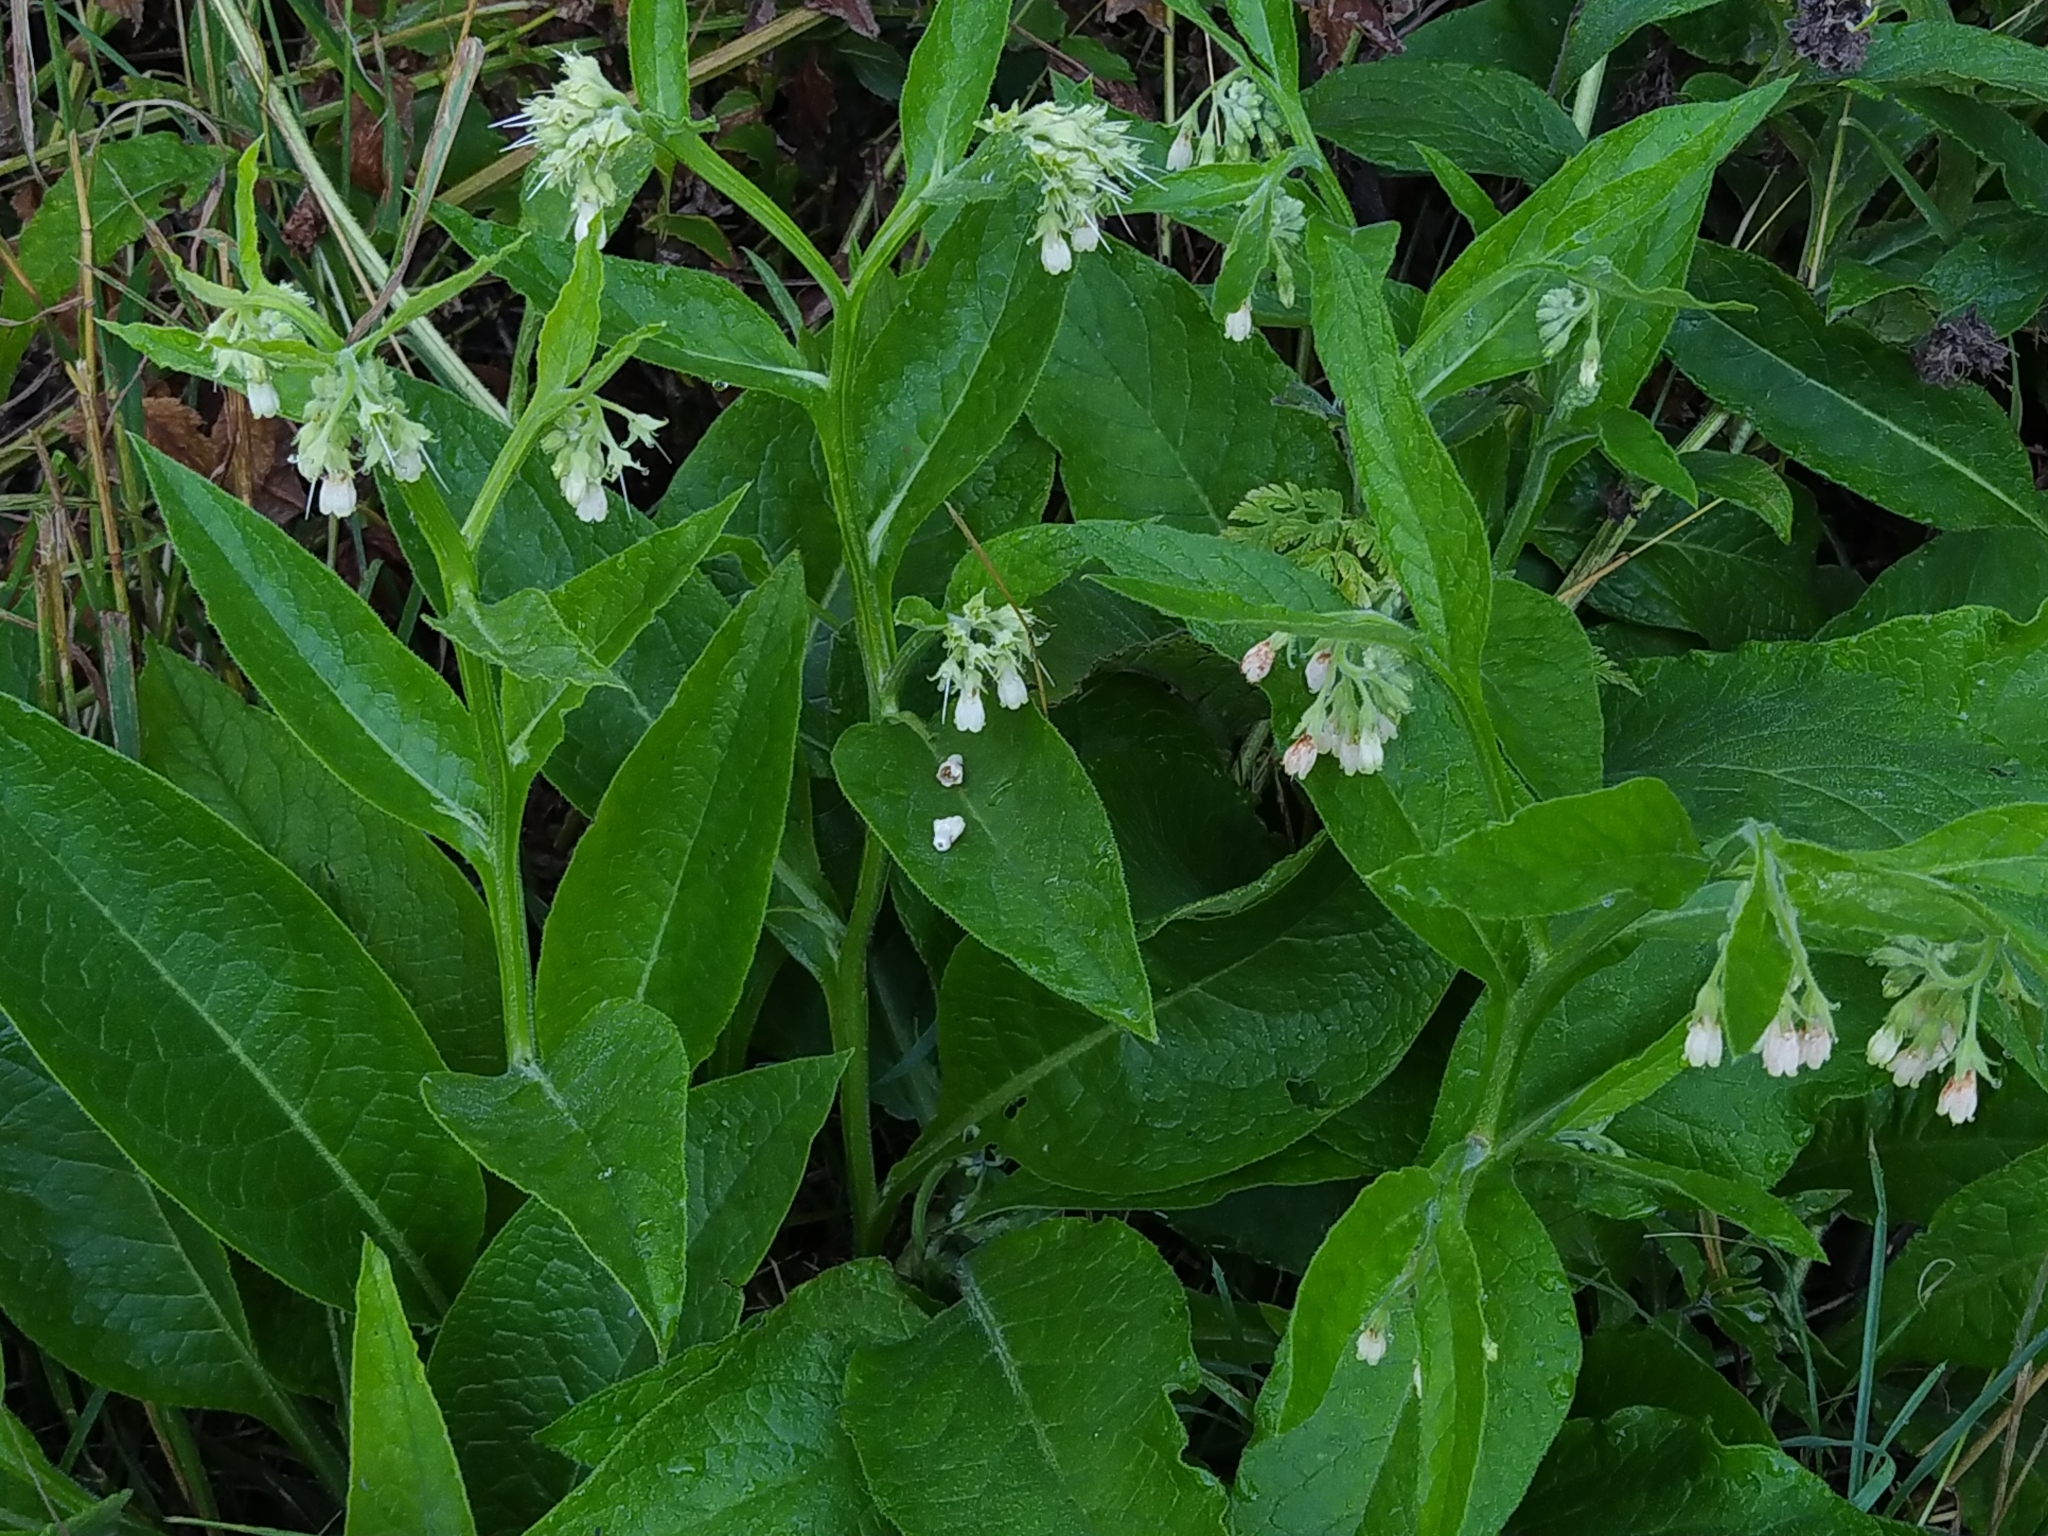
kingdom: Plantae
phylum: Tracheophyta
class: Magnoliopsida
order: Boraginales
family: Boraginaceae
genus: Symphytum
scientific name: Symphytum bohemicum
